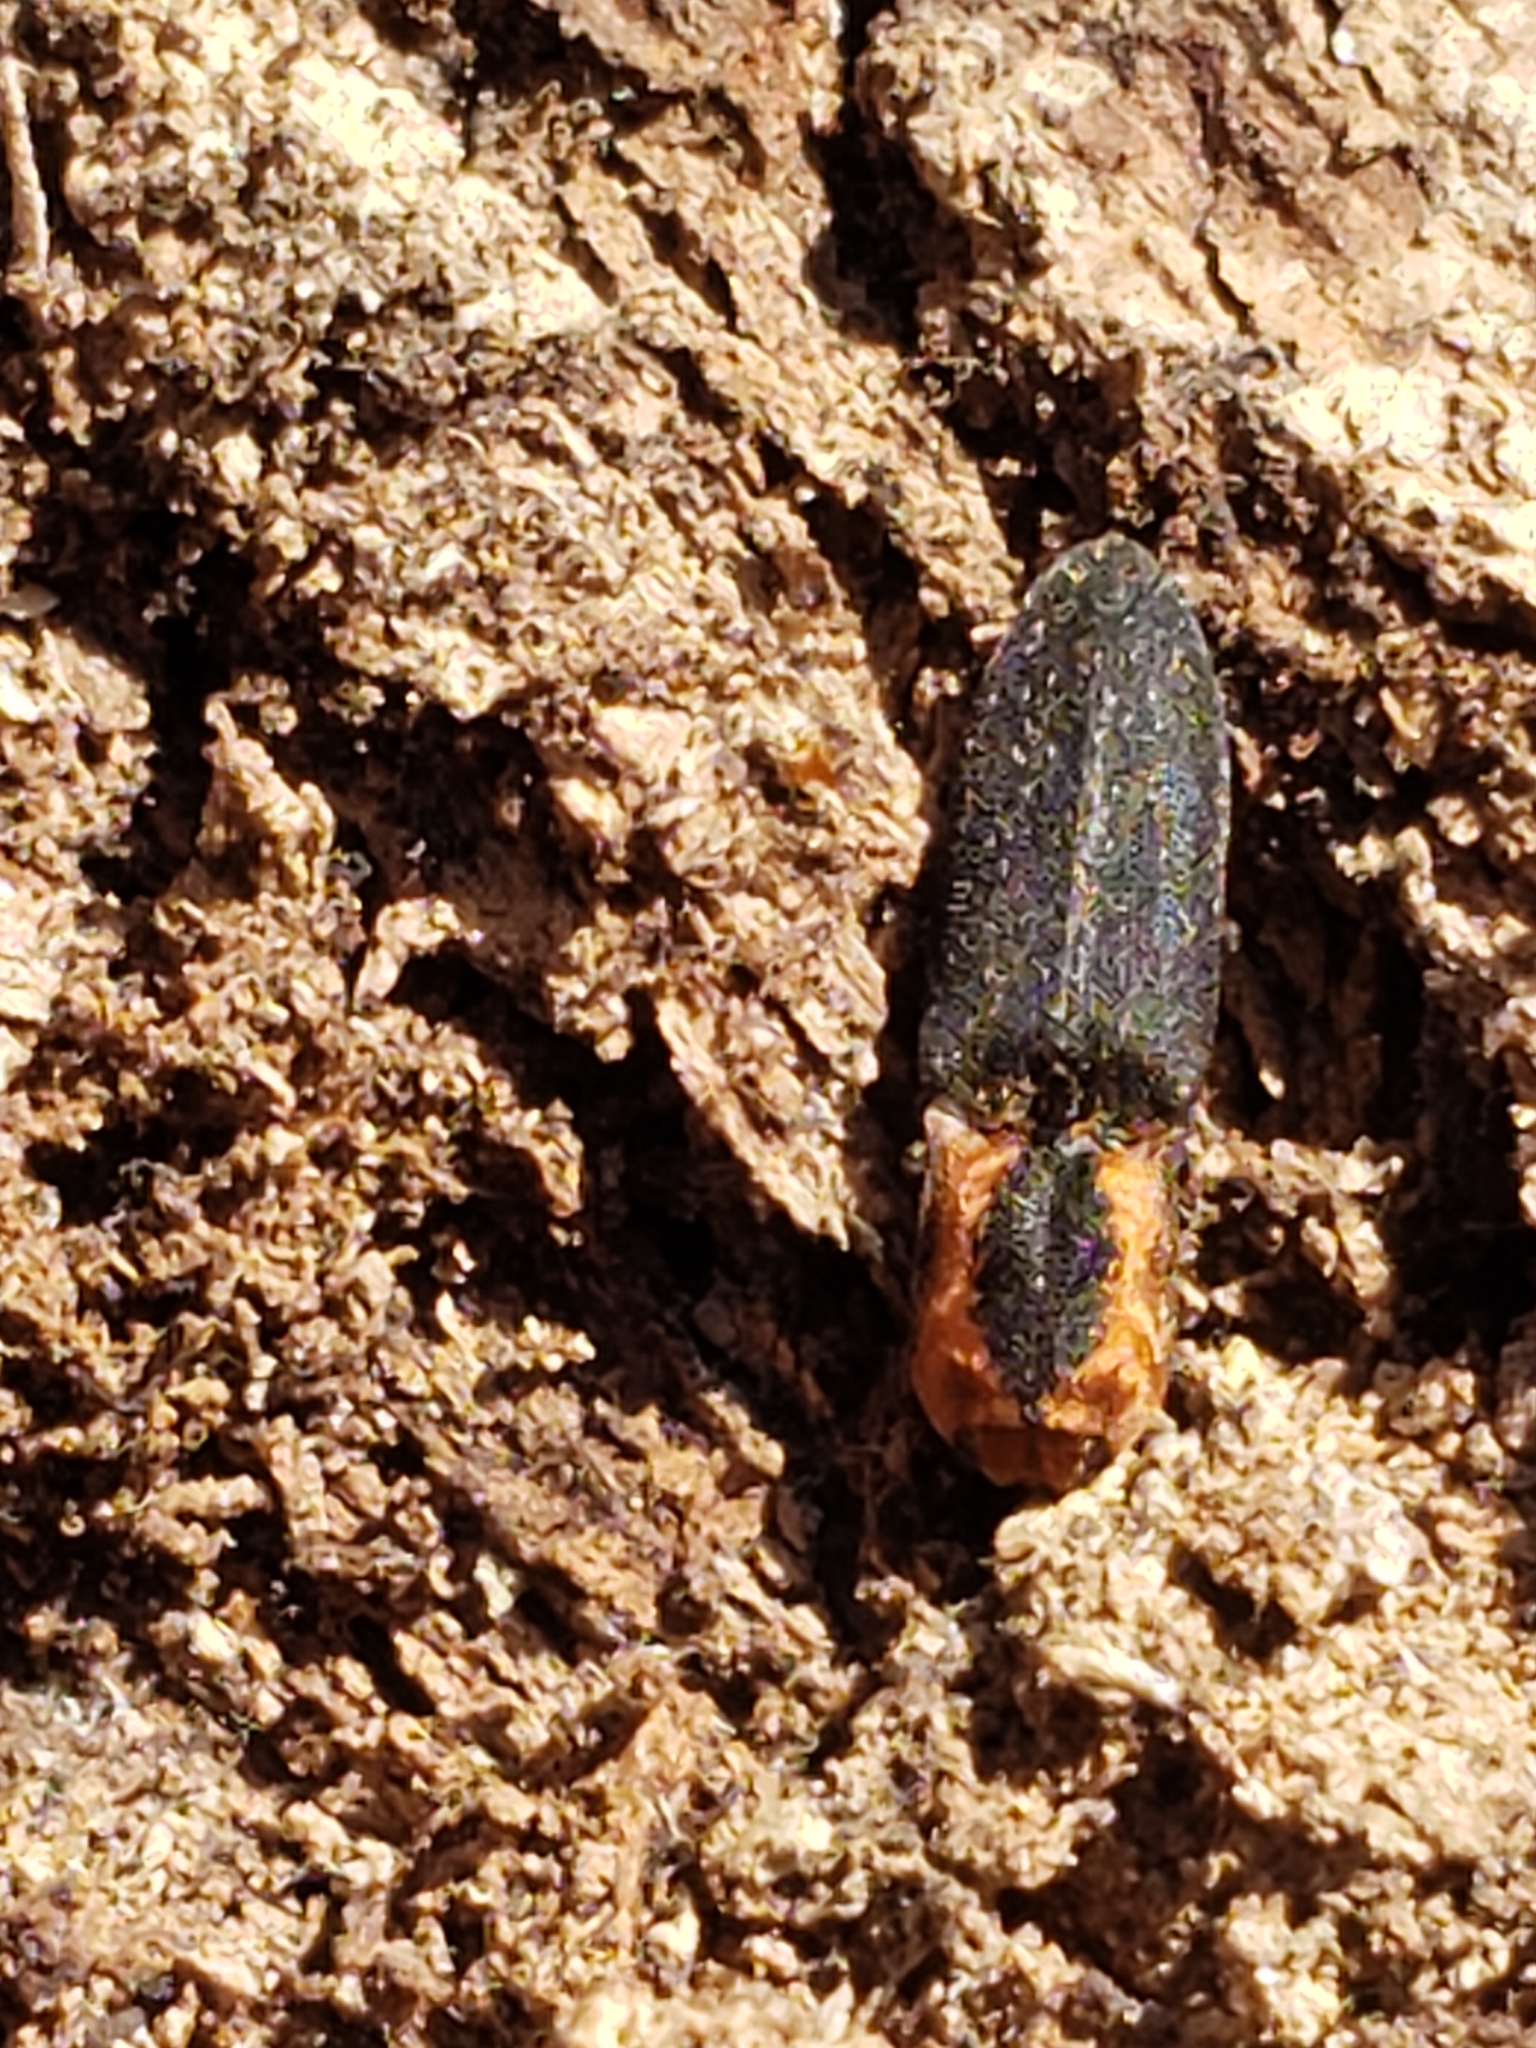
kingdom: Animalia
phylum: Arthropoda
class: Insecta
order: Coleoptera
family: Elateridae
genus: Lacon
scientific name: Lacon discoideus
